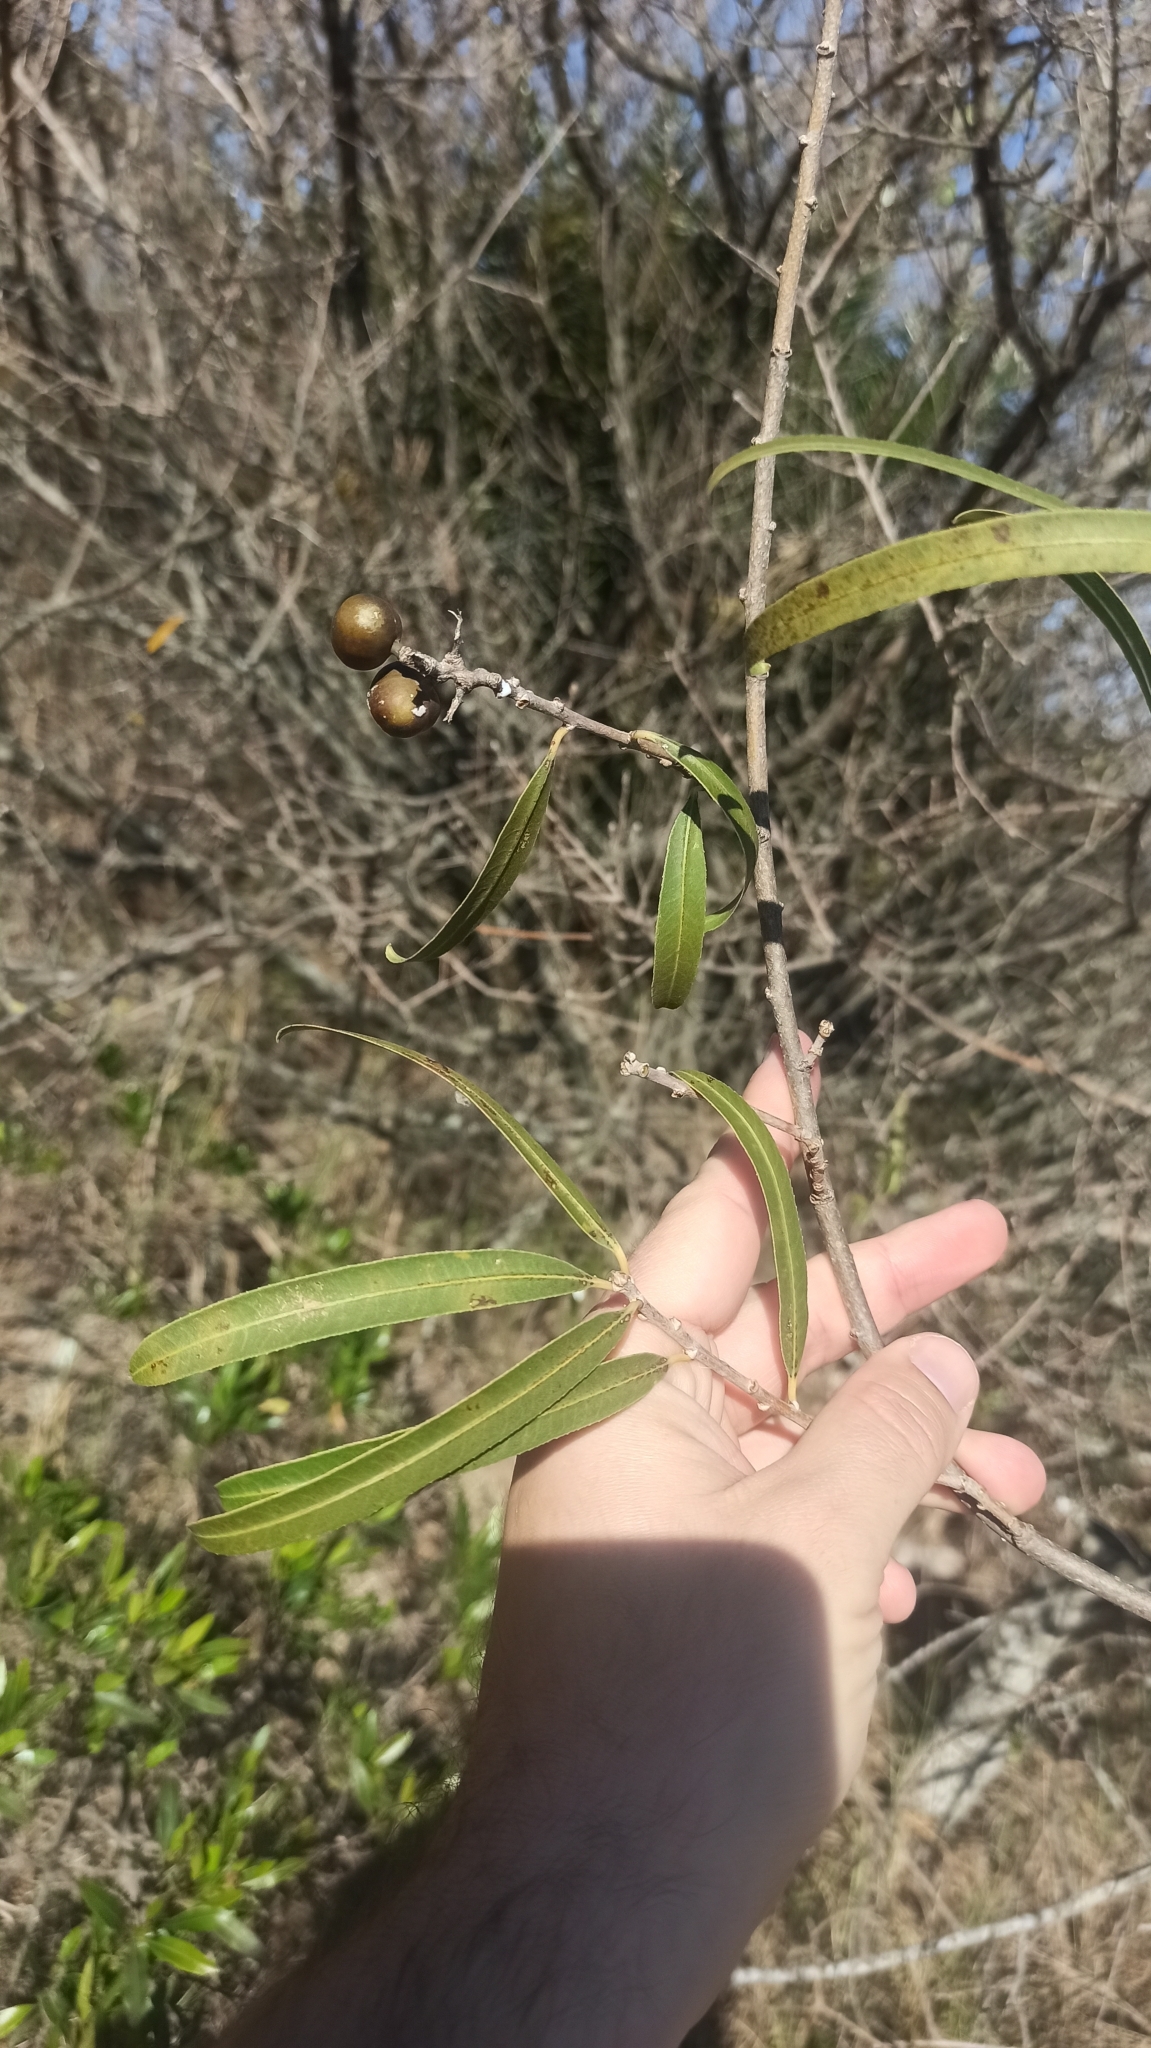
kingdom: Plantae
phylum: Tracheophyta
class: Magnoliopsida
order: Malpighiales
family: Euphorbiaceae
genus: Sapium
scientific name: Sapium haematospermum
